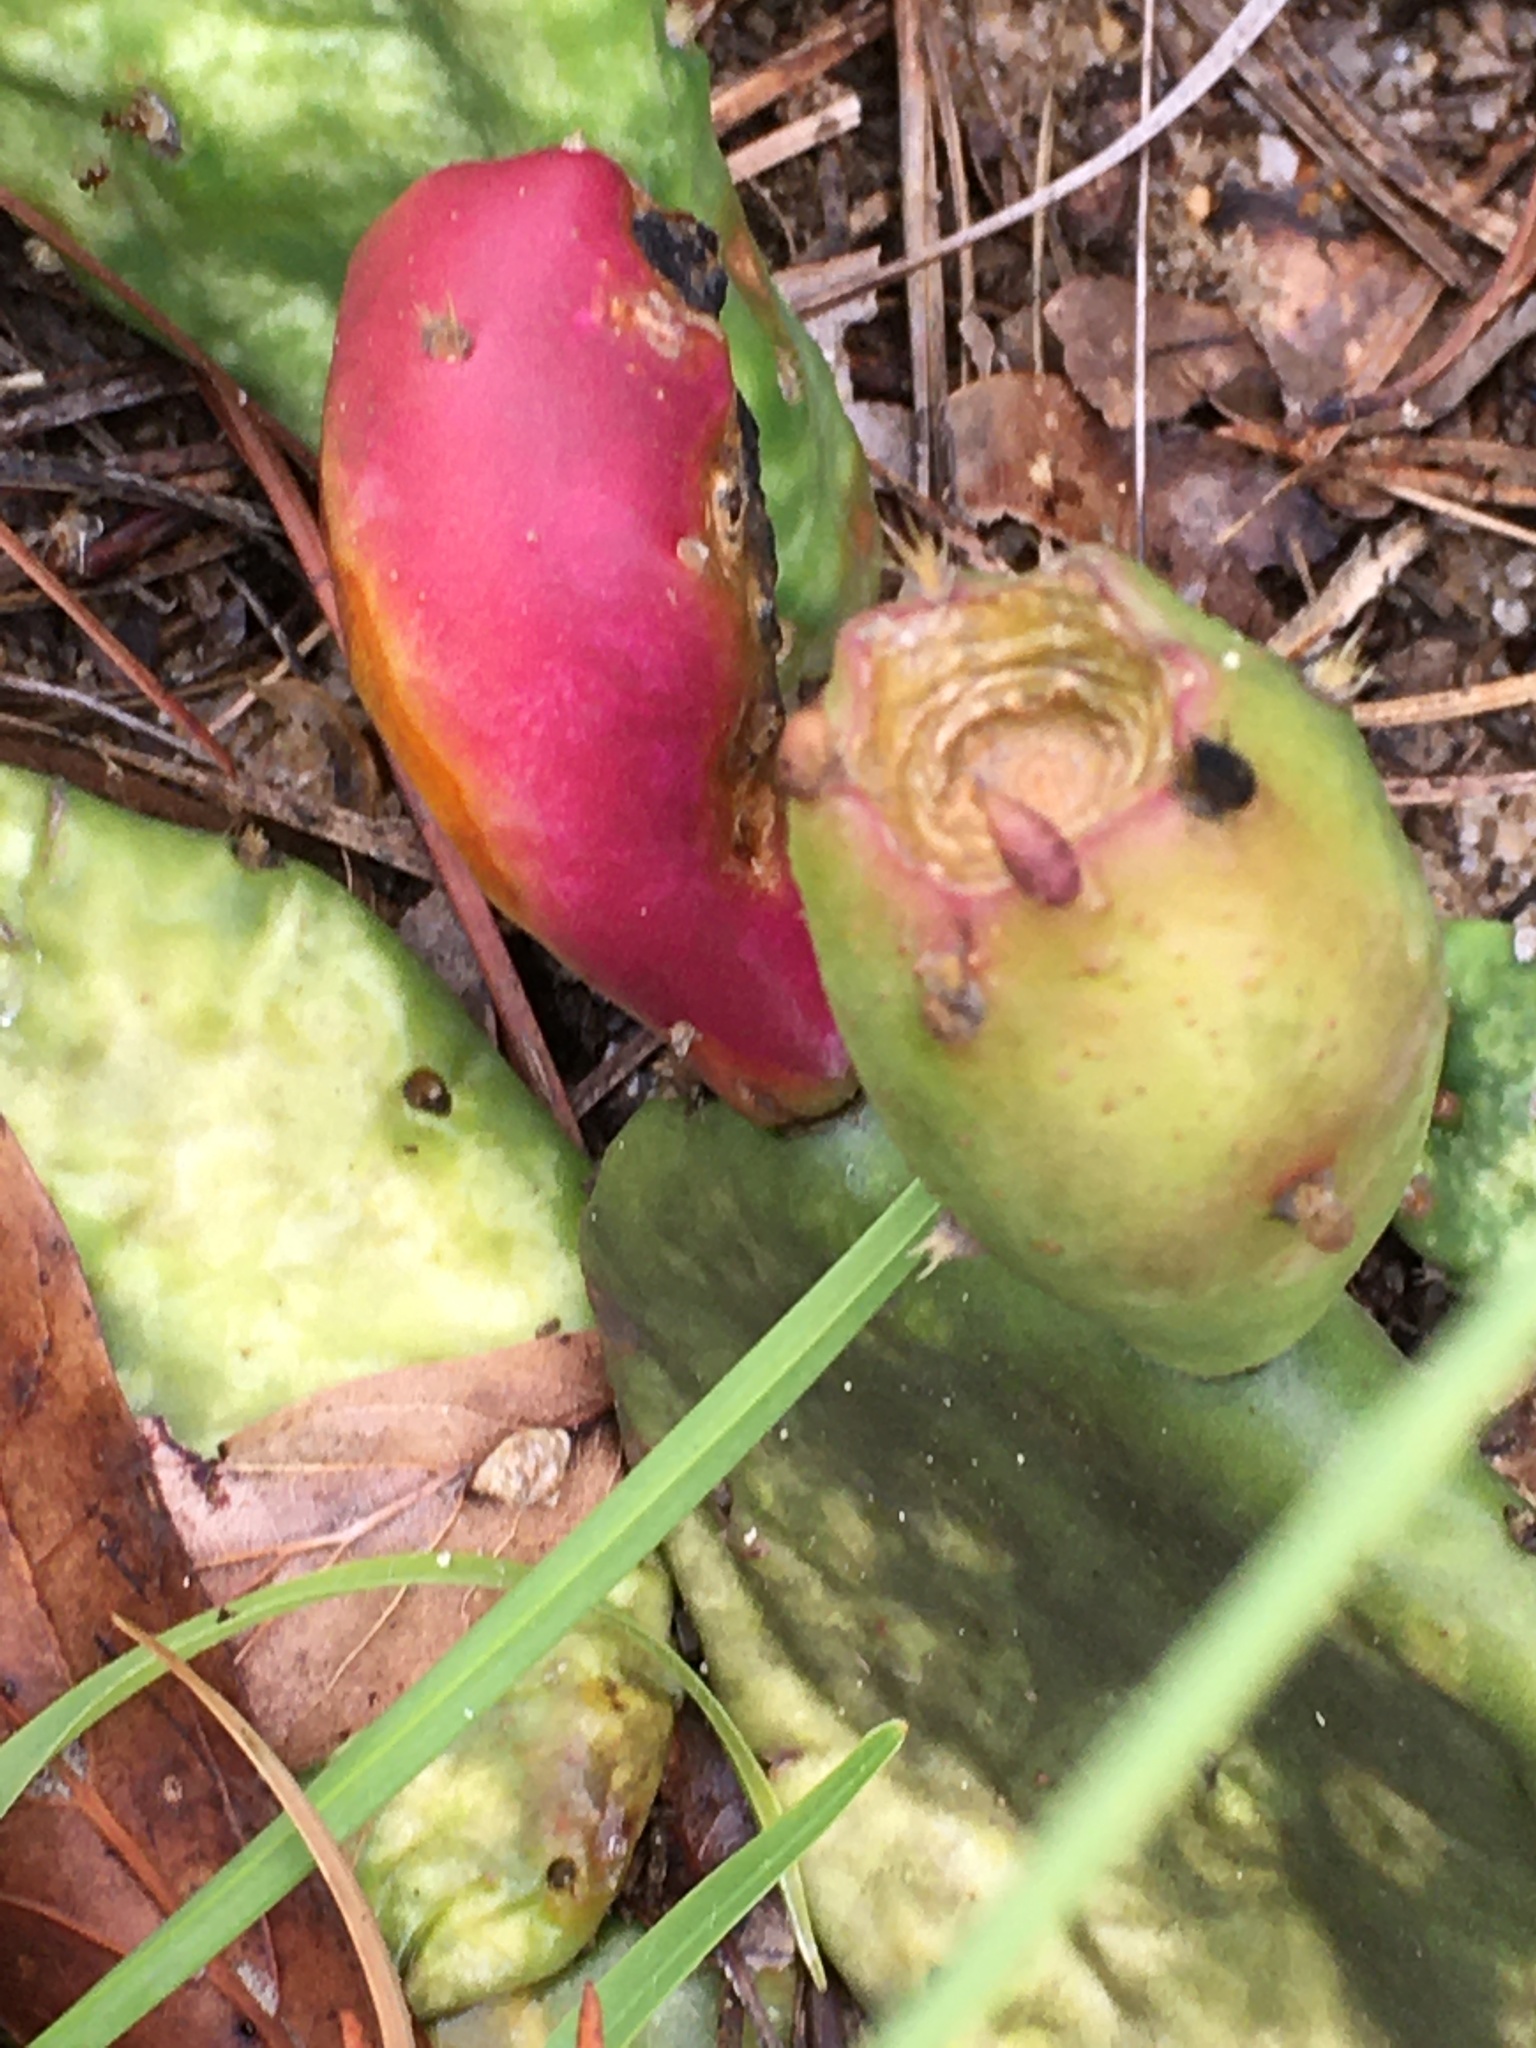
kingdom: Plantae
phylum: Tracheophyta
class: Magnoliopsida
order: Caryophyllales
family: Cactaceae
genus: Opuntia
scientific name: Opuntia mesacantha
